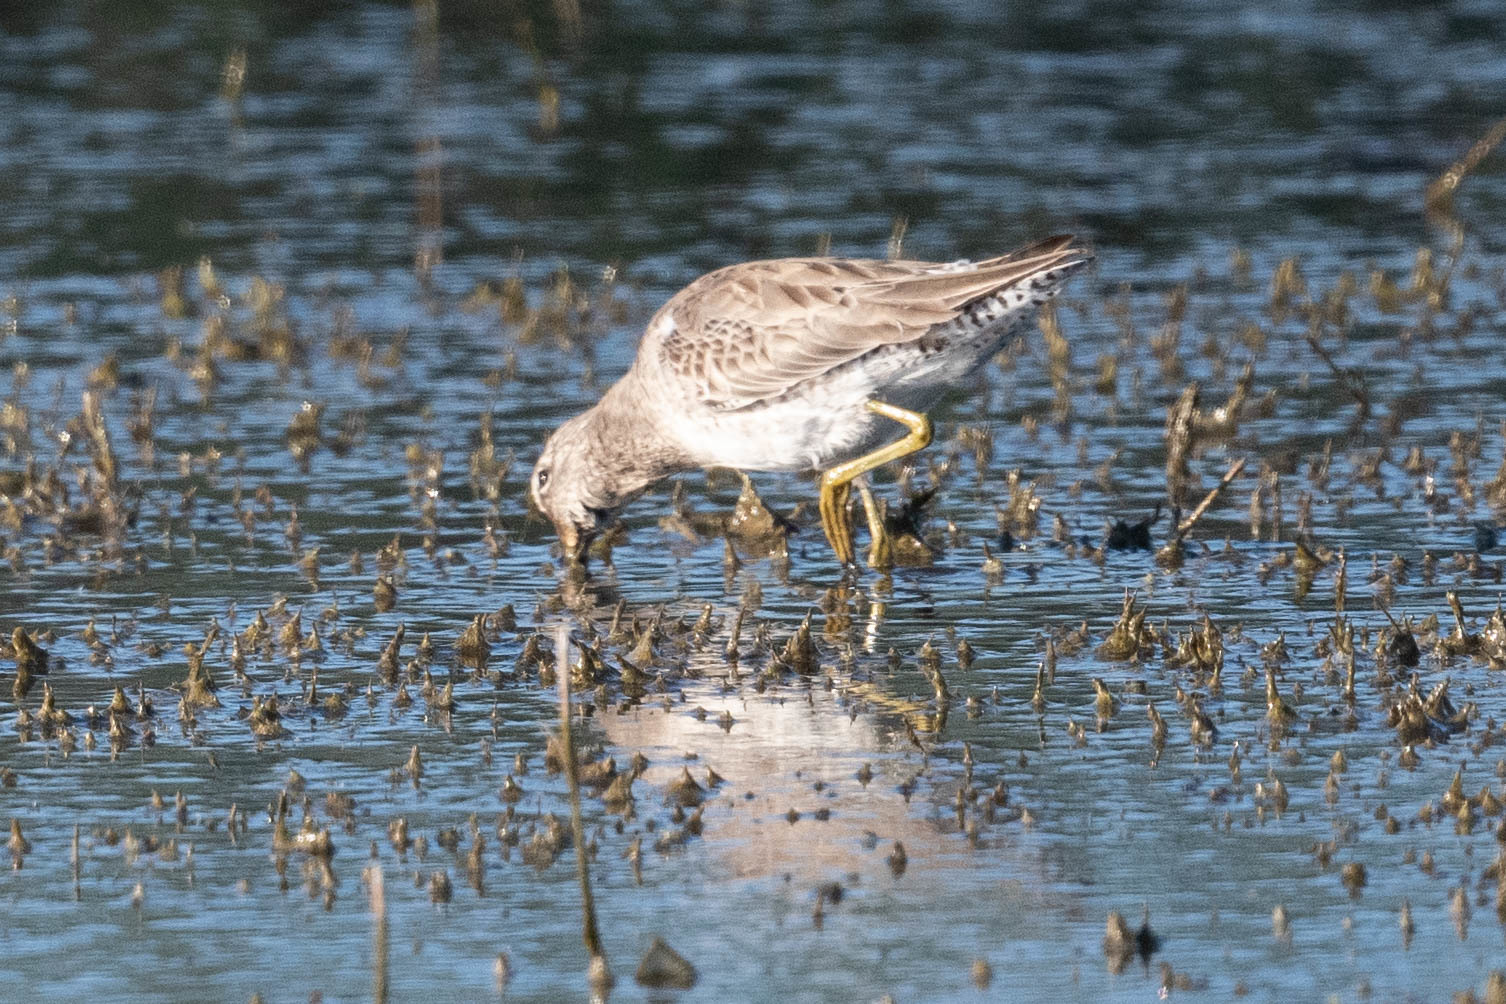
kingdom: Animalia
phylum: Chordata
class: Aves
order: Charadriiformes
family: Scolopacidae
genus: Limnodromus
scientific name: Limnodromus scolopaceus
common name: Long-billed dowitcher
